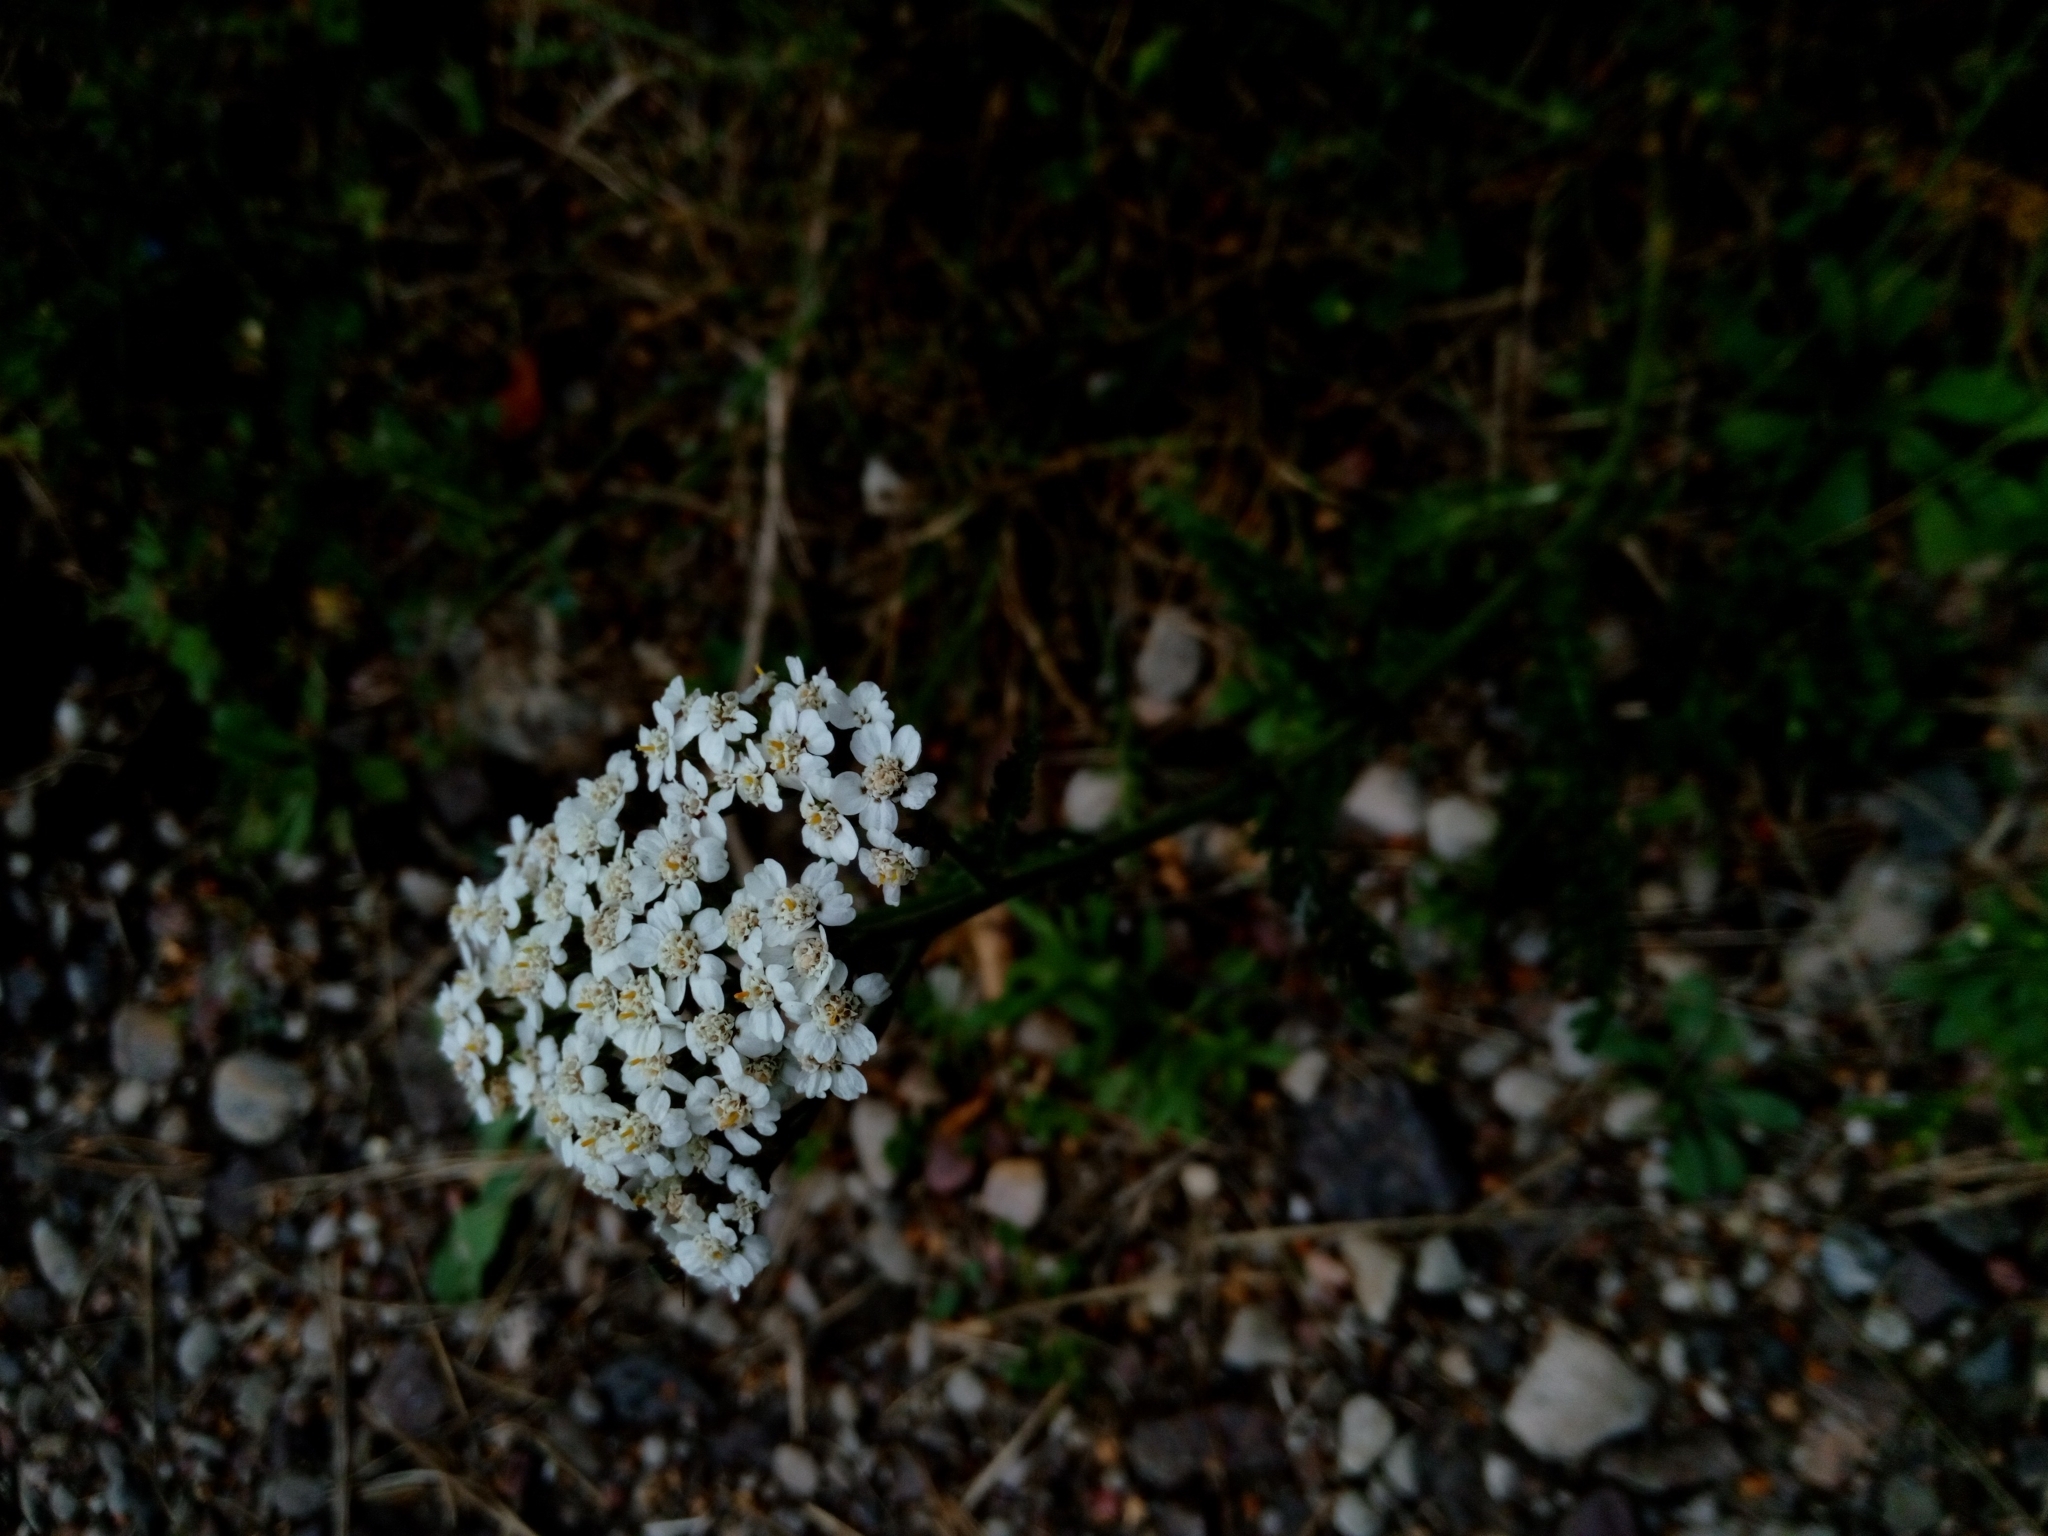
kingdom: Plantae
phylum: Tracheophyta
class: Magnoliopsida
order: Asterales
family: Asteraceae
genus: Achillea
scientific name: Achillea millefolium
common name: Yarrow
